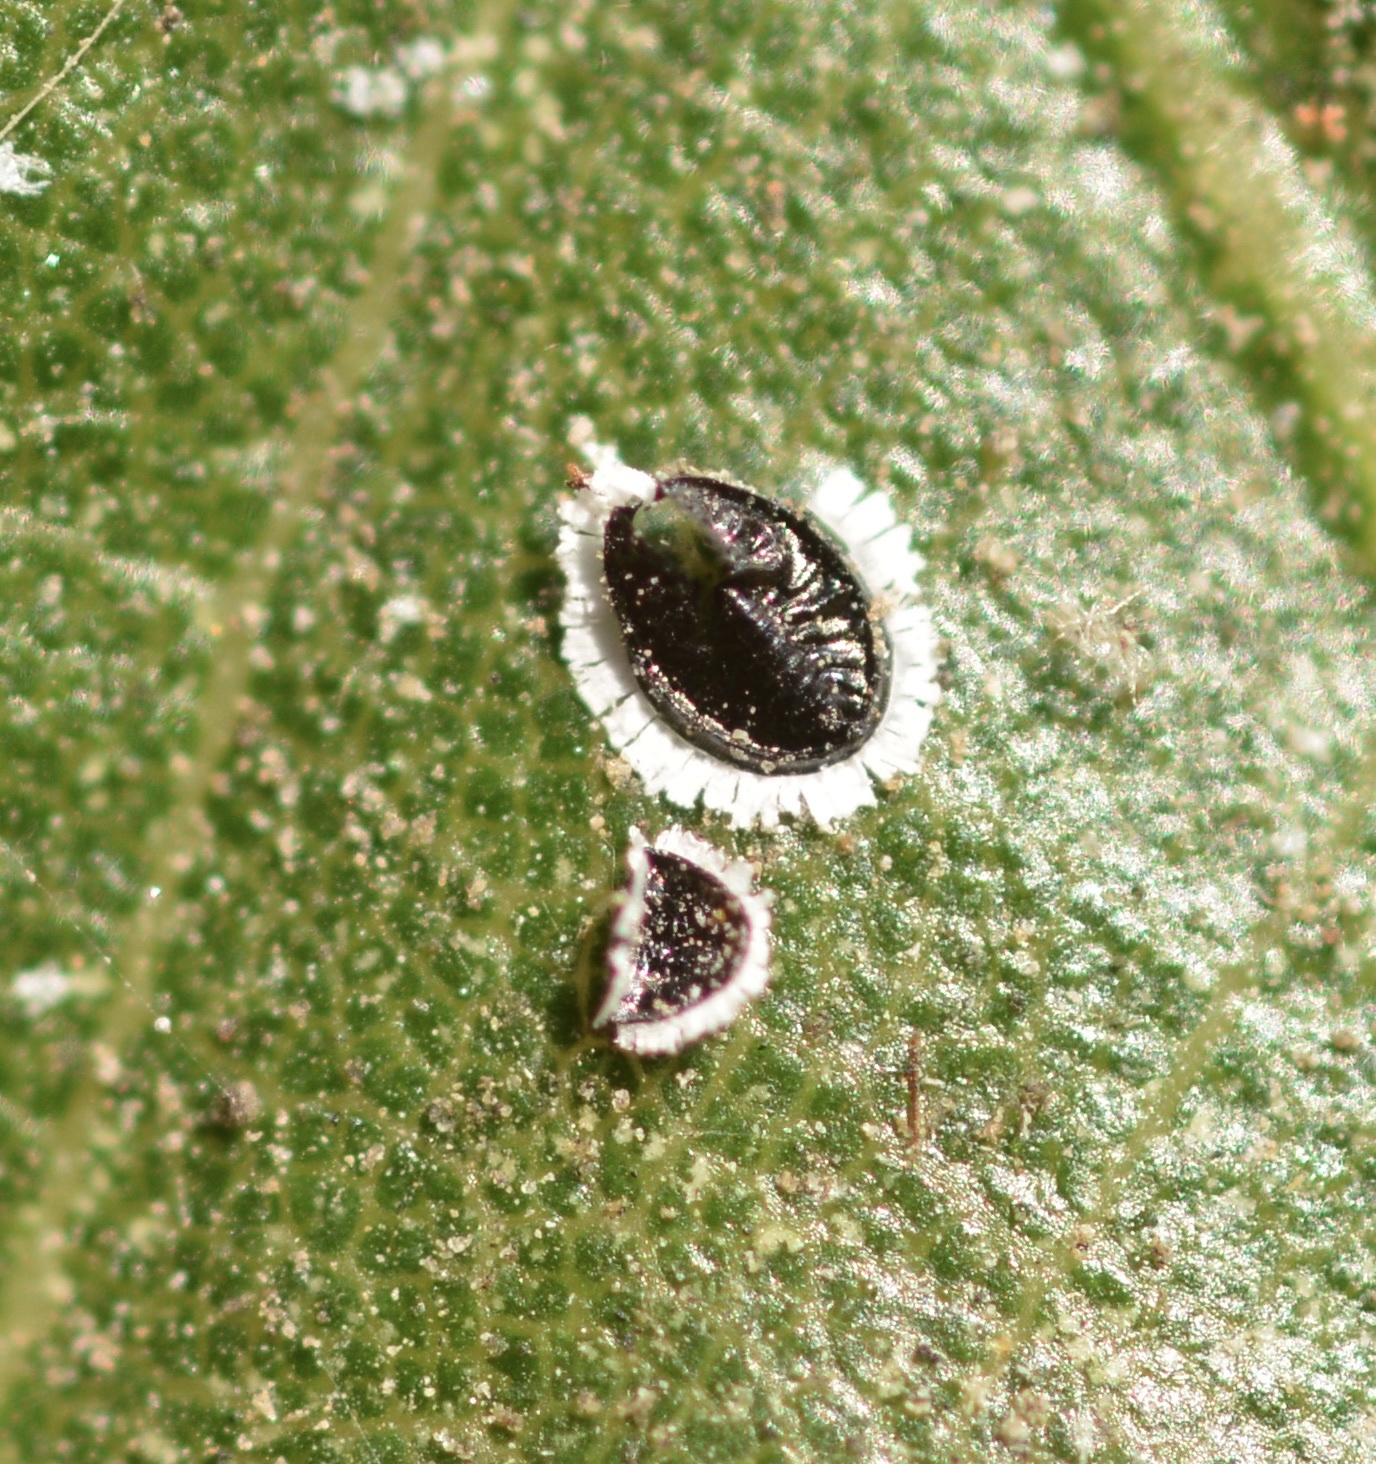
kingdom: Animalia
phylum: Arthropoda
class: Insecta
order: Hemiptera
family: Aleyrodidae
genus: Tetraleurodes
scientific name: Tetraleurodes perileuca
